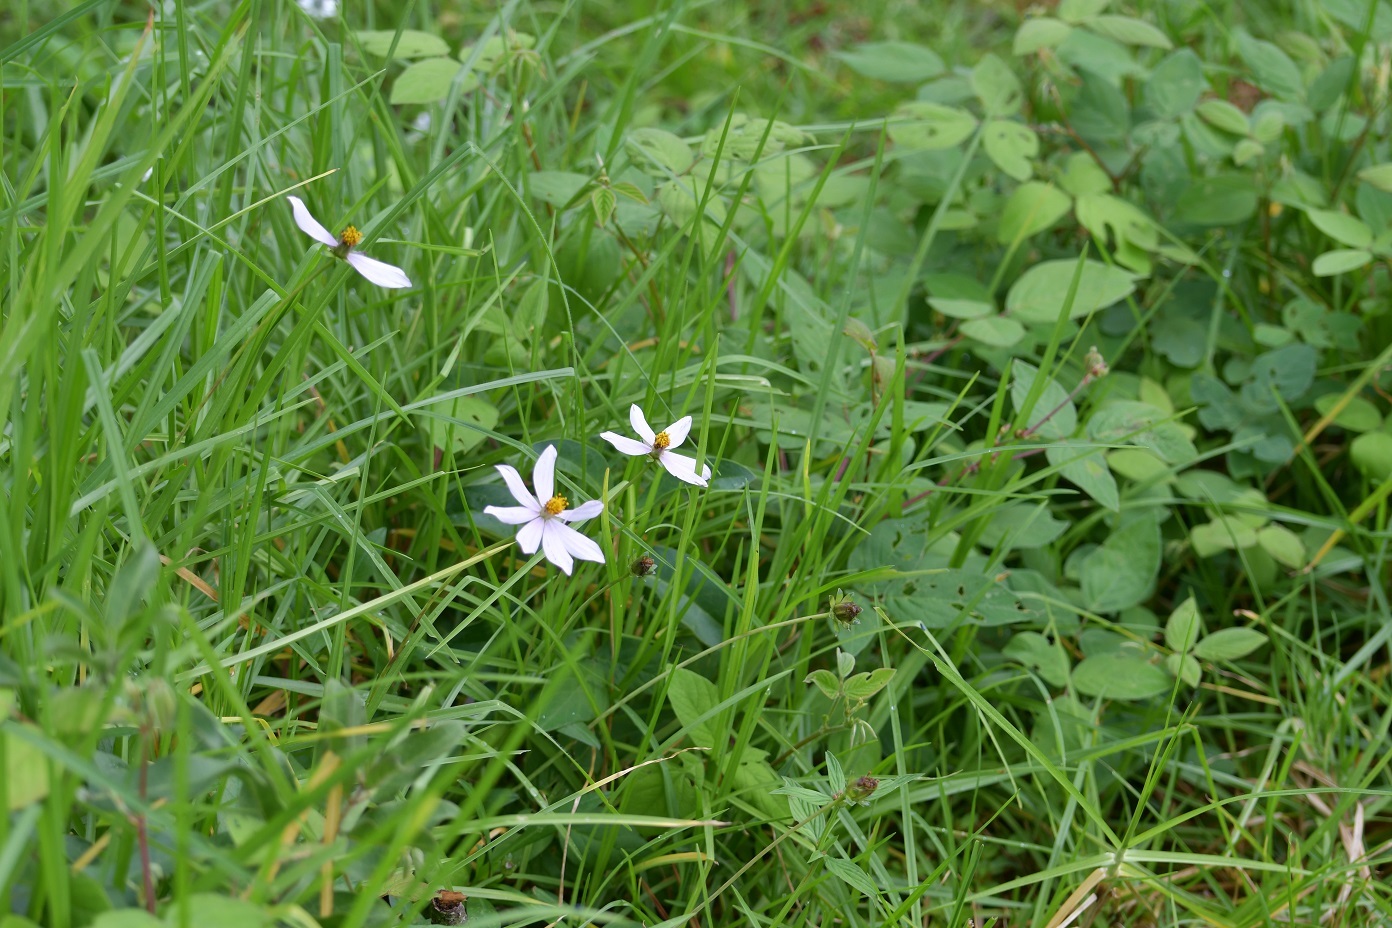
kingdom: Plantae
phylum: Tracheophyta
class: Magnoliopsida
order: Asterales
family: Asteraceae
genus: Cosmos
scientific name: Cosmos diversifolius
